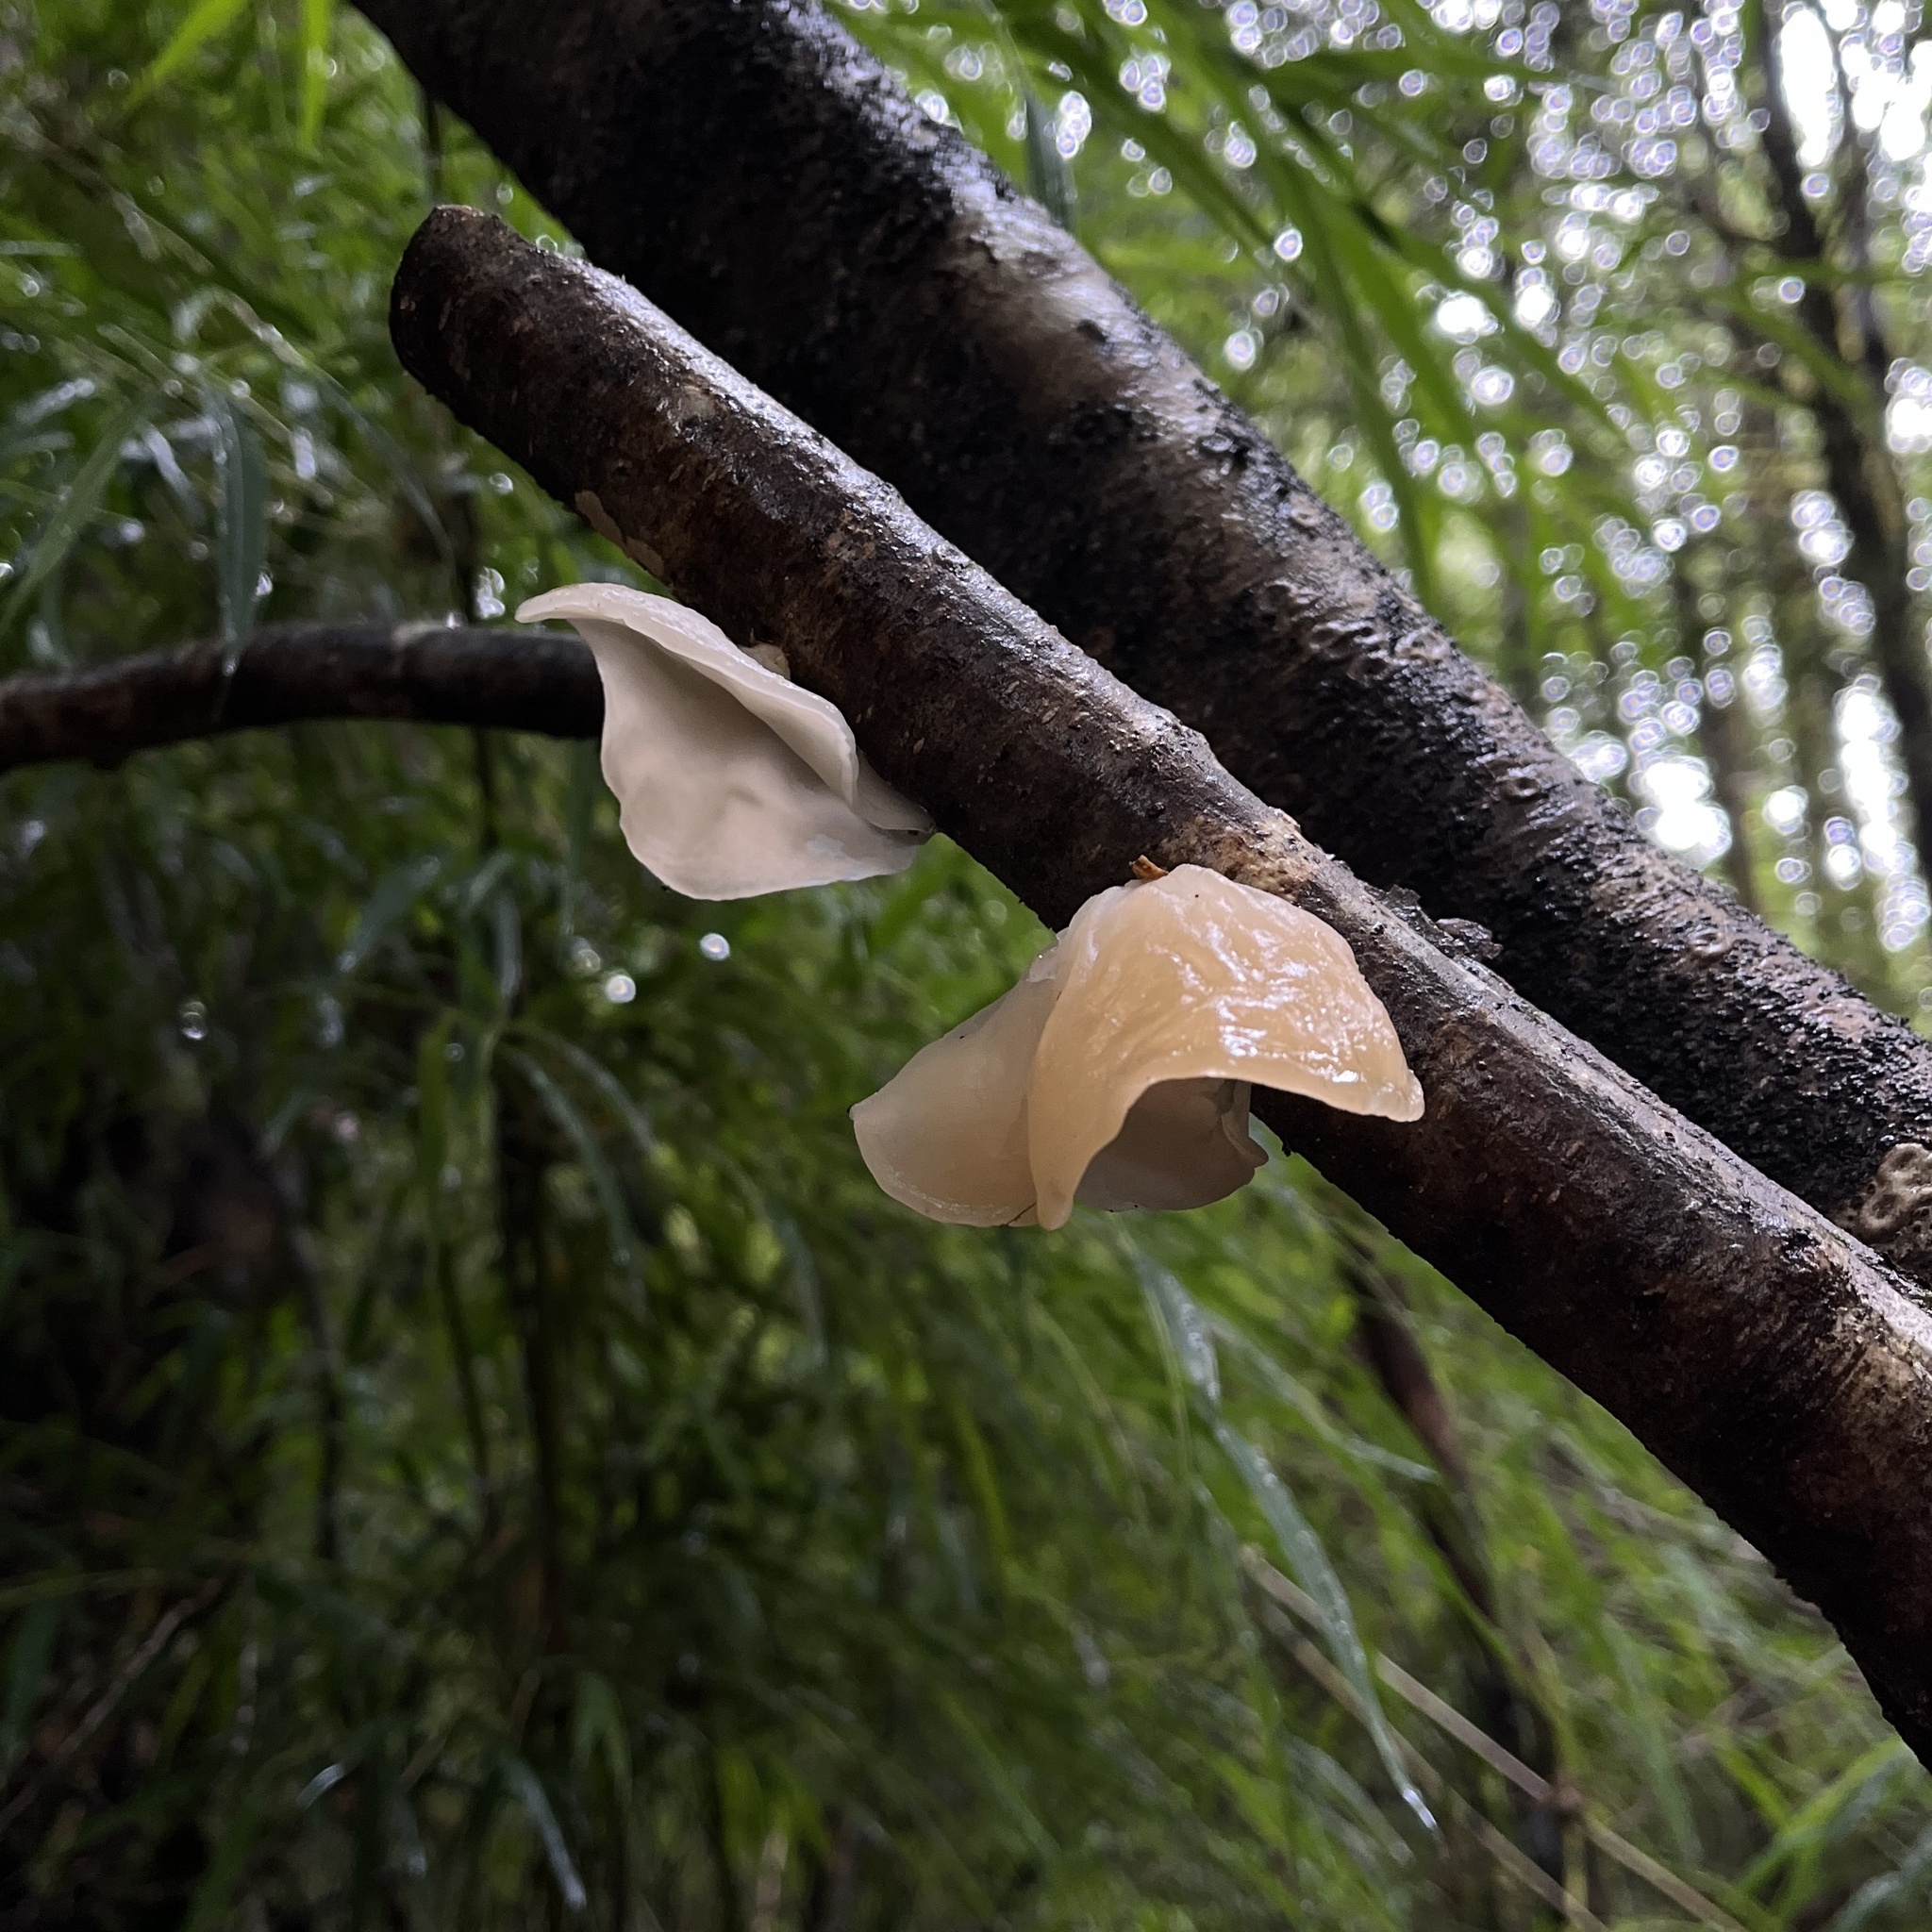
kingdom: Fungi
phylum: Basidiomycota
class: Agaricomycetes
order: Russulales
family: Stereaceae
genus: Aleurodiscus
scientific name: Aleurodiscus vitellinus
